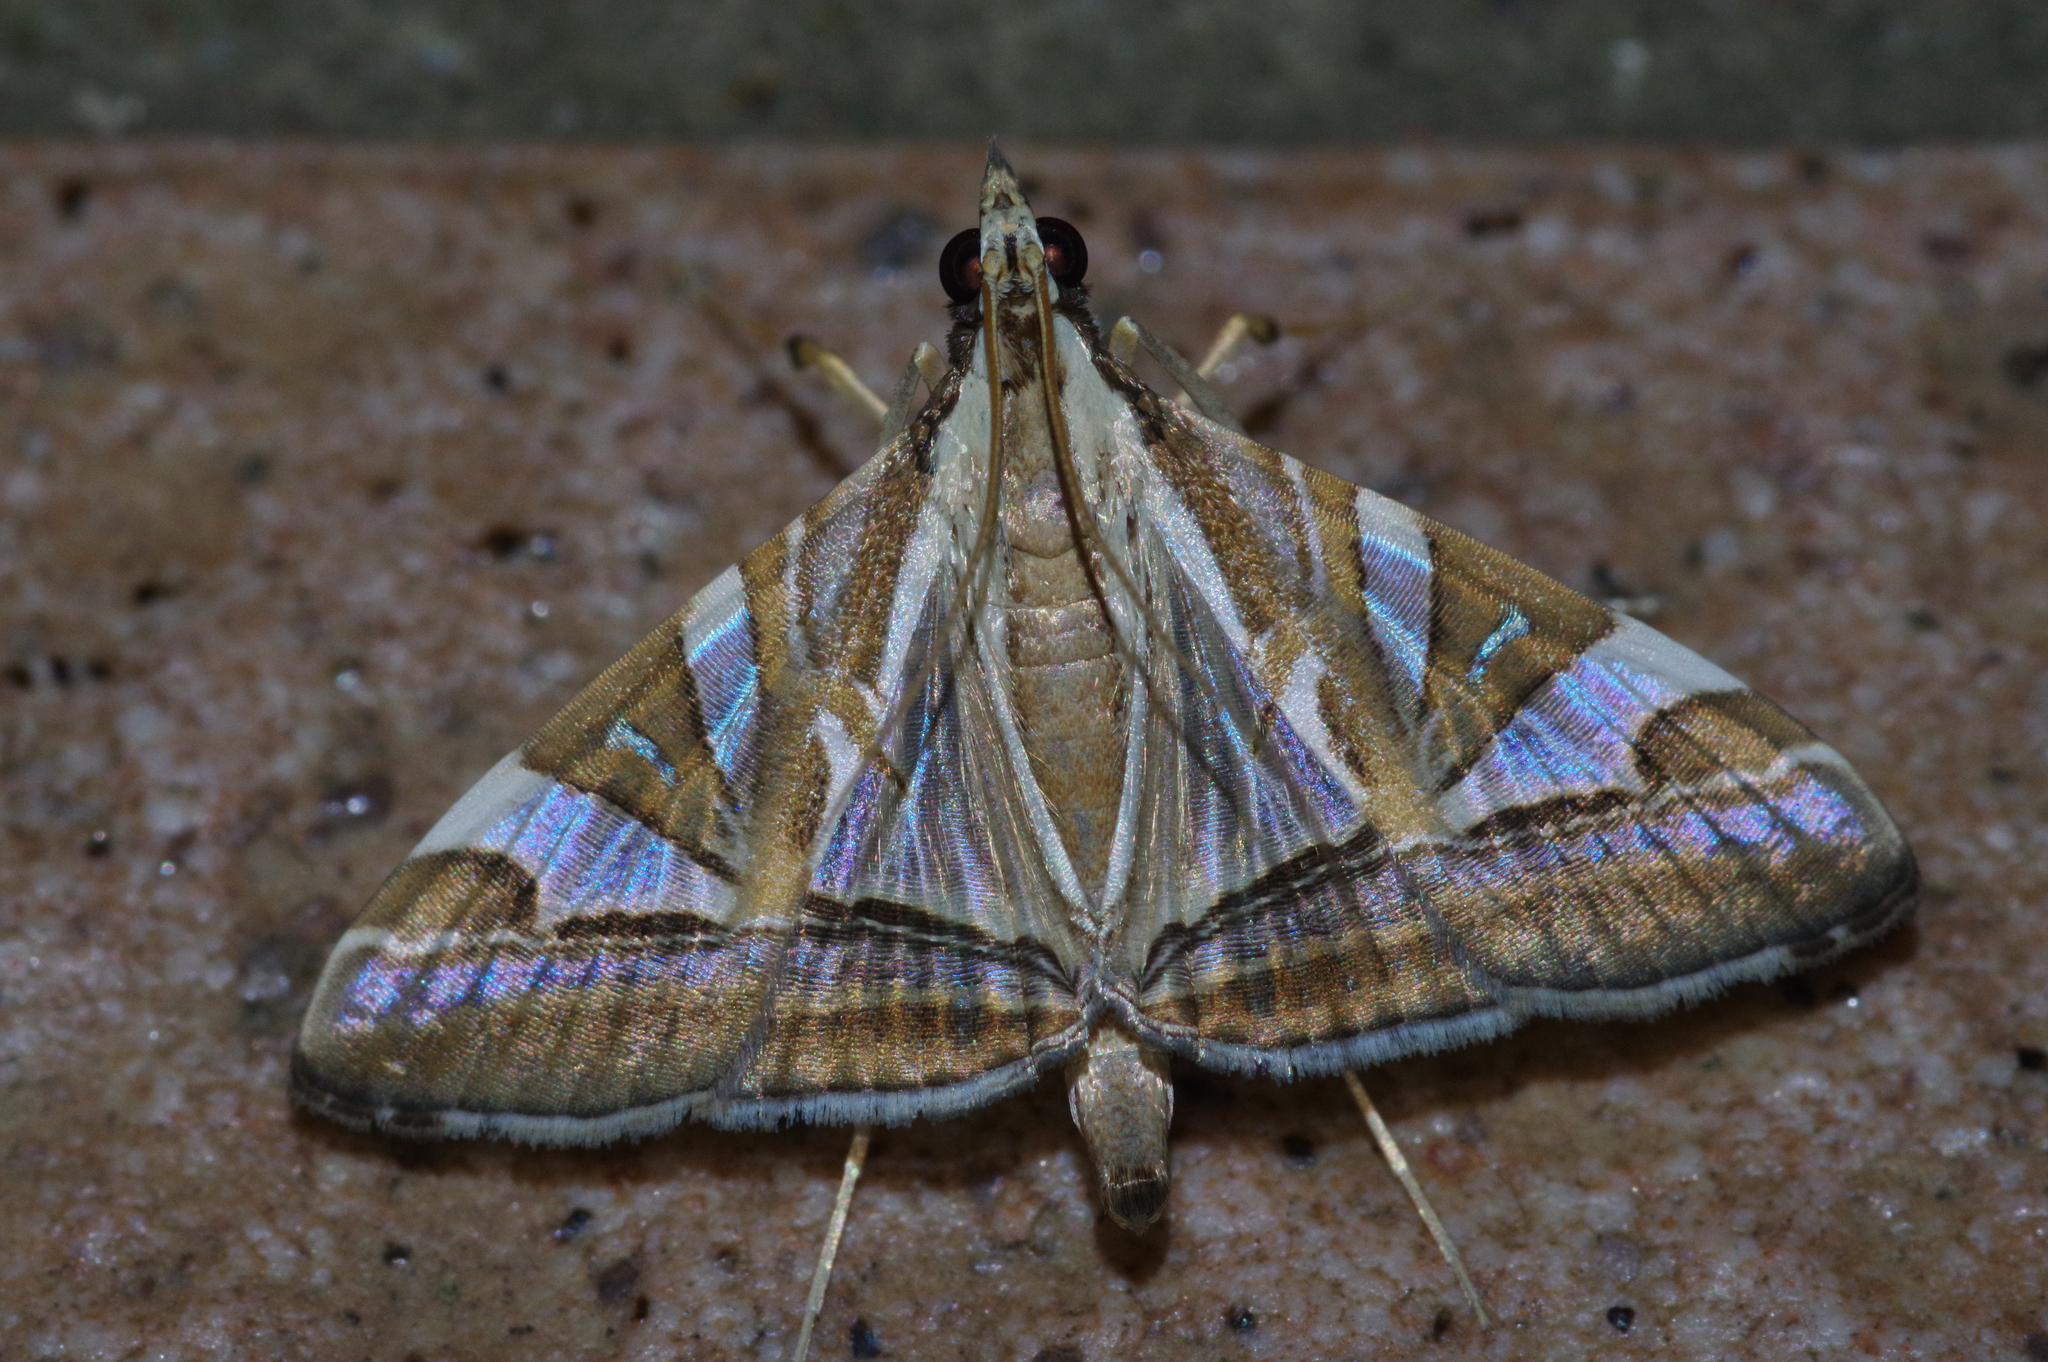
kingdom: Animalia
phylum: Arthropoda
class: Insecta
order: Lepidoptera
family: Crambidae
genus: Agrioglypta
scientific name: Agrioglypta itysalis
